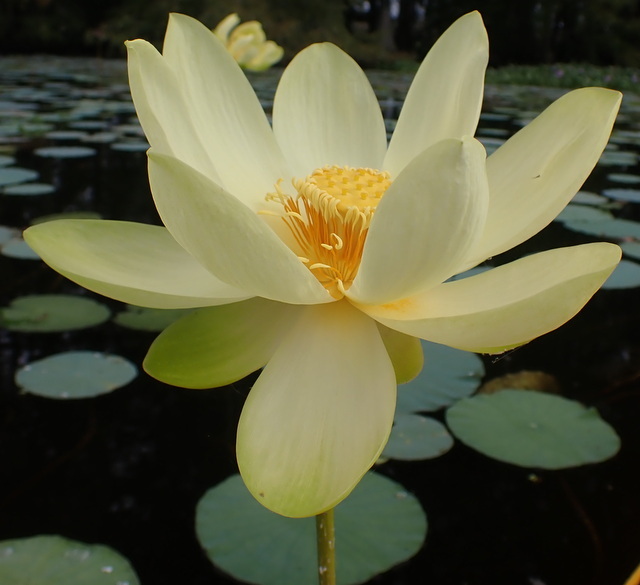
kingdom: Plantae
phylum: Tracheophyta
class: Magnoliopsida
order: Proteales
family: Nelumbonaceae
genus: Nelumbo
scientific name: Nelumbo lutea
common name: American lotus
